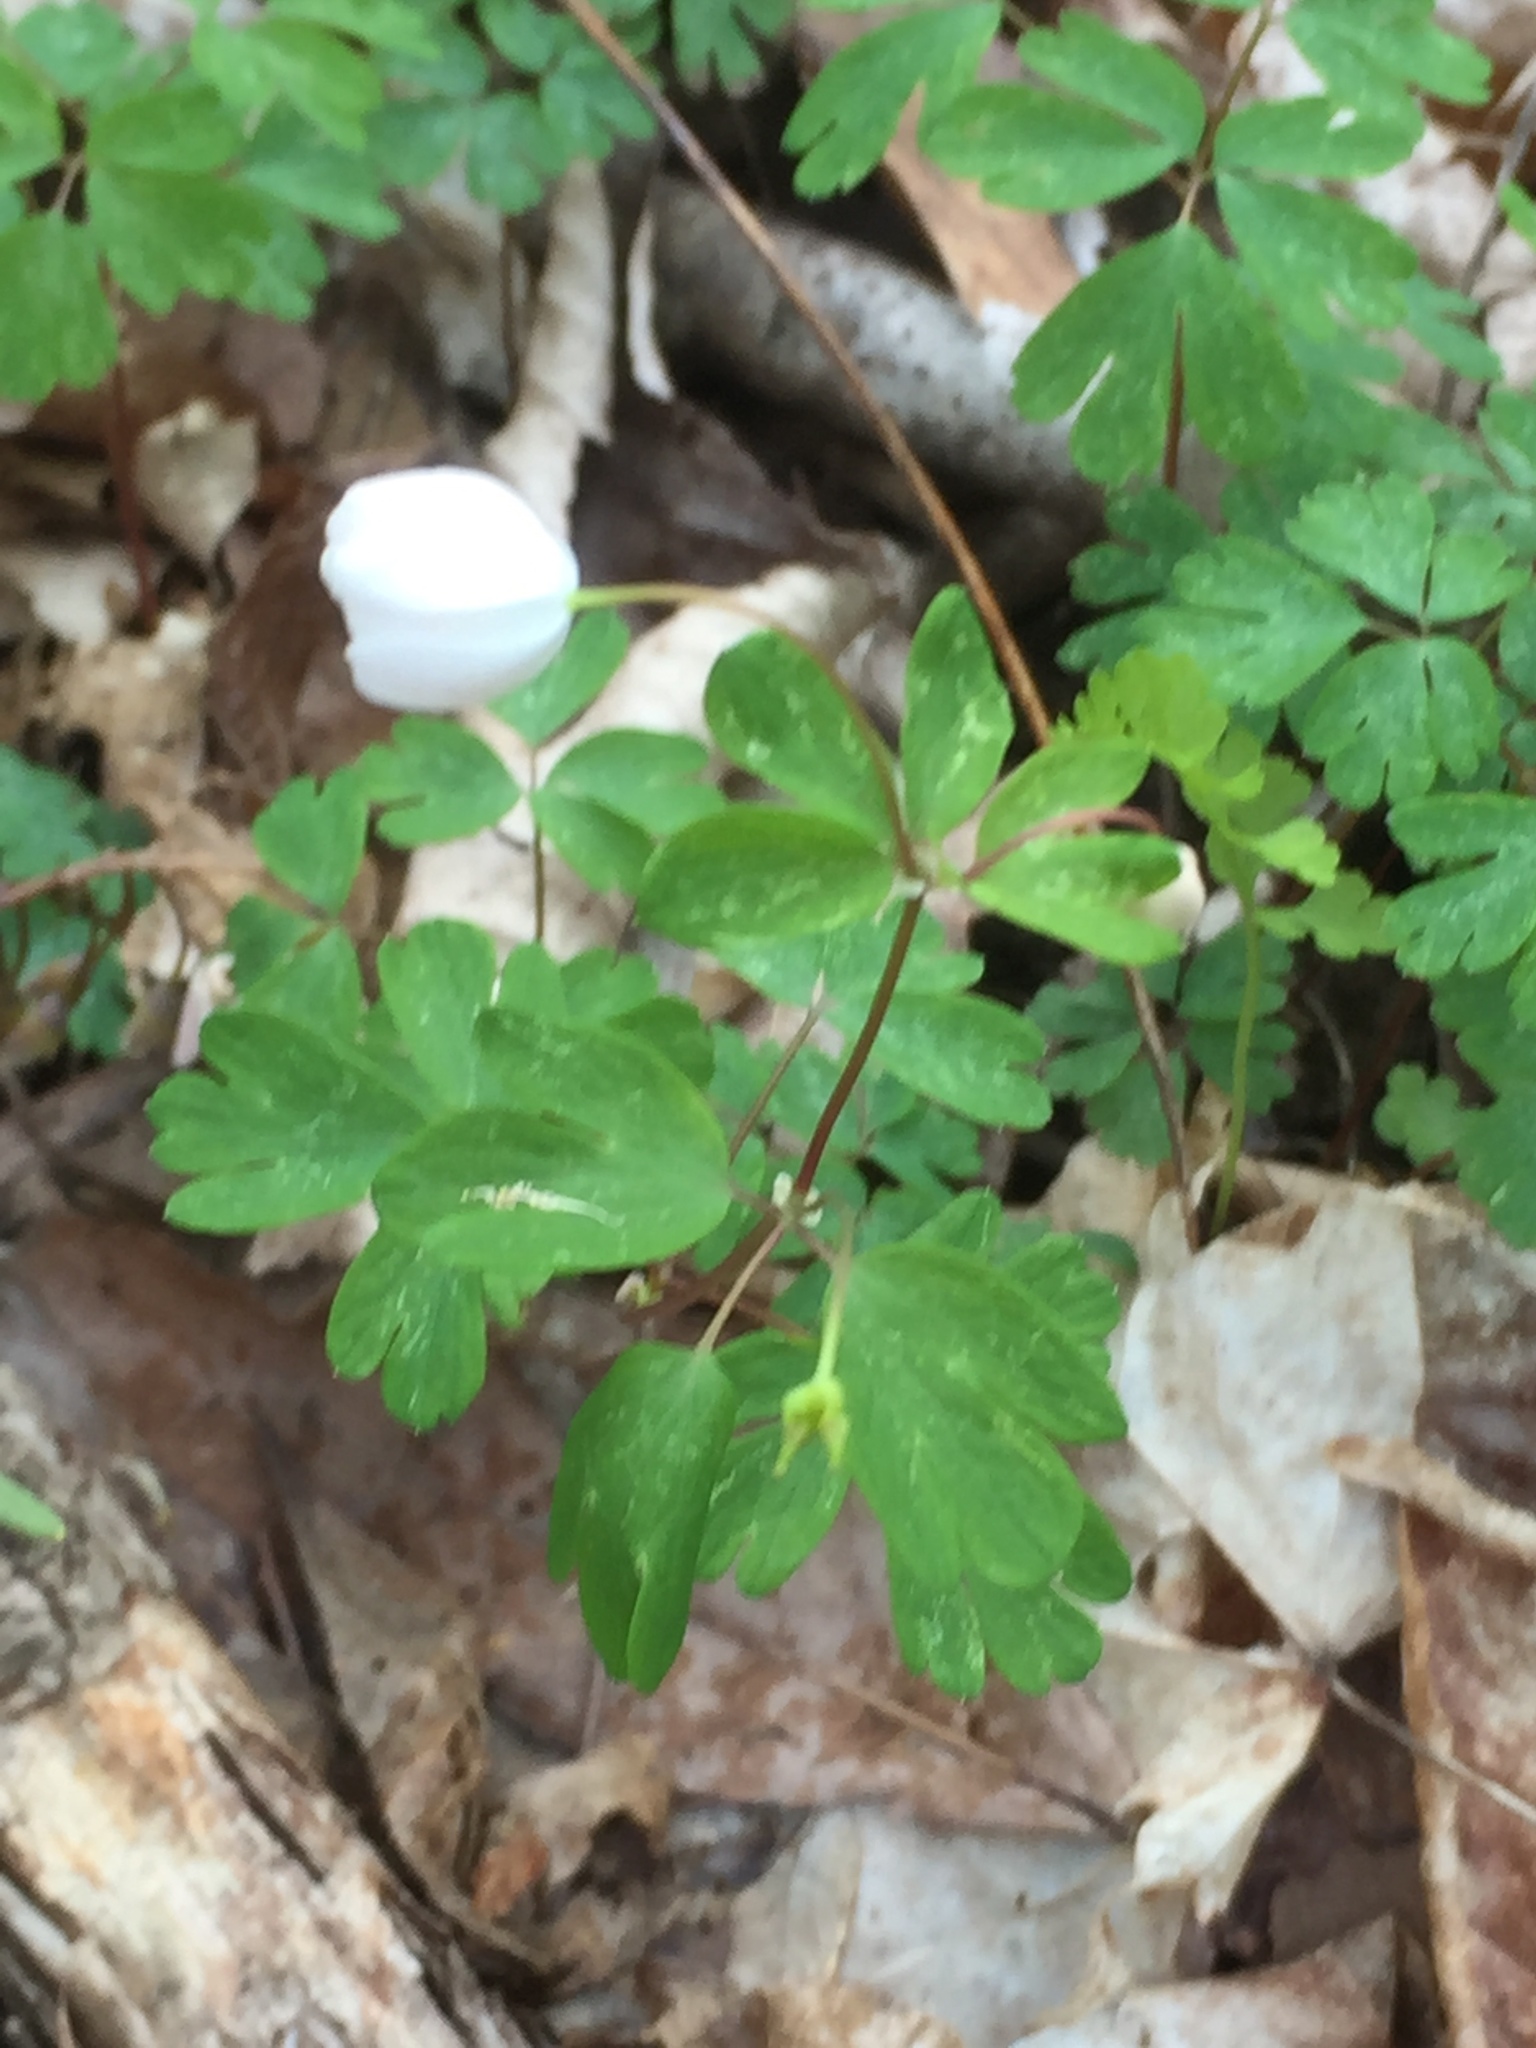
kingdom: Plantae
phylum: Tracheophyta
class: Magnoliopsida
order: Ranunculales
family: Ranunculaceae
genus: Enemion
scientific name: Enemion biternatum
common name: Eastern false rue-anemone
